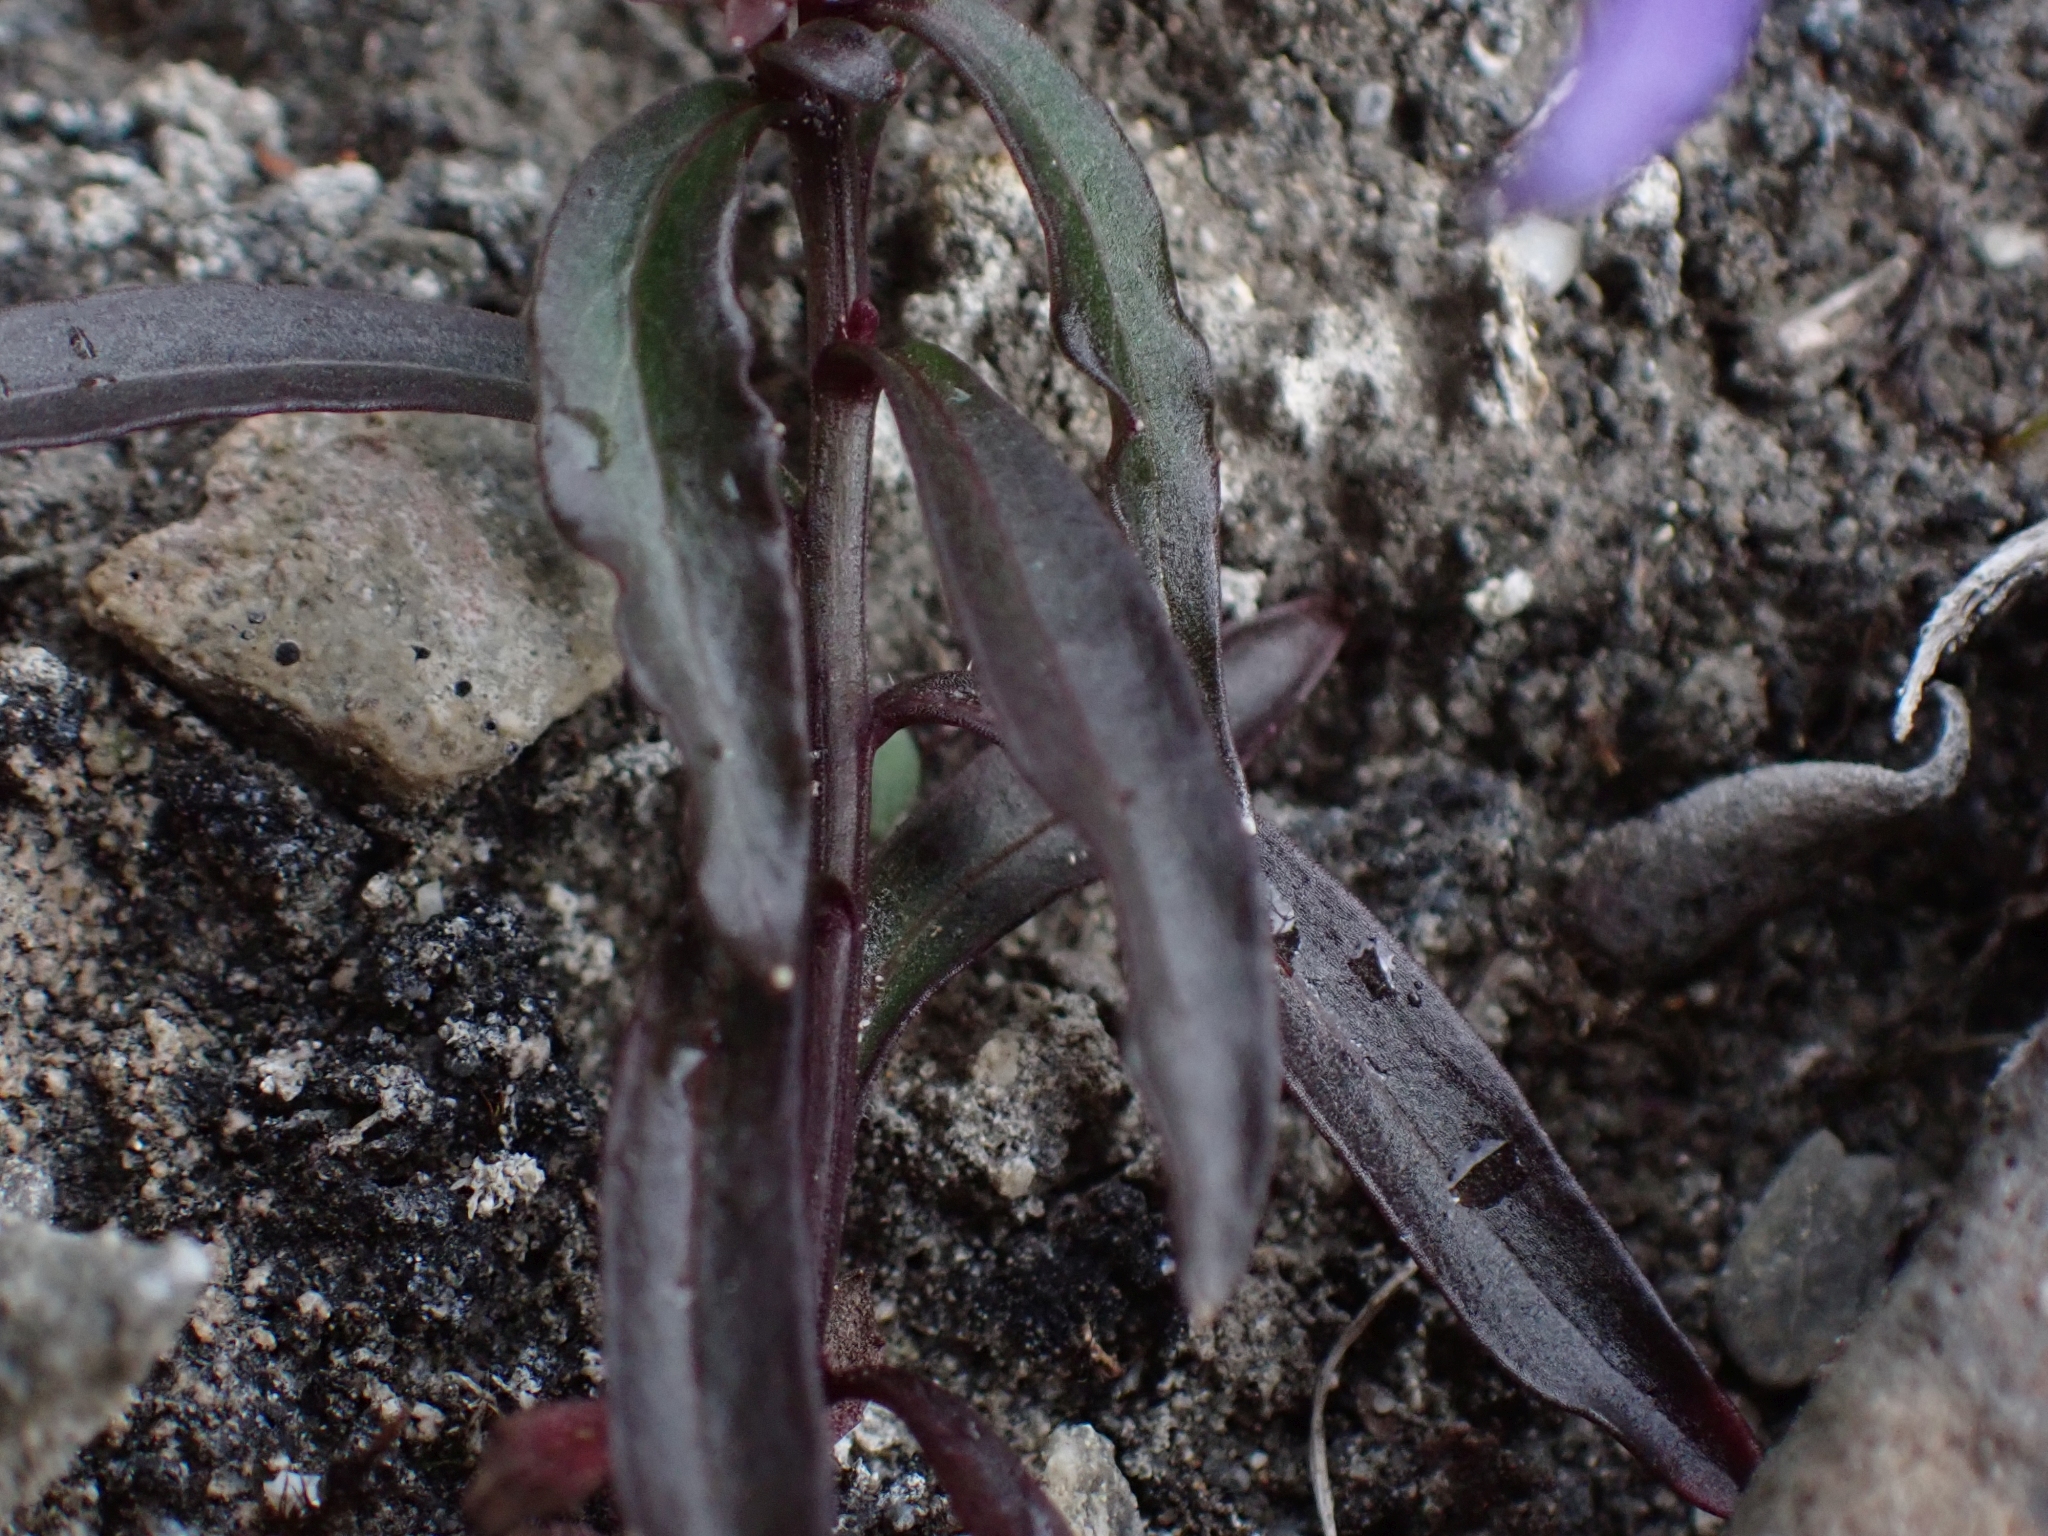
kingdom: Plantae
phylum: Tracheophyta
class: Magnoliopsida
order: Asterales
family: Campanulaceae
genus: Campanula
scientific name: Campanula aurita
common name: Yukon bellflower
